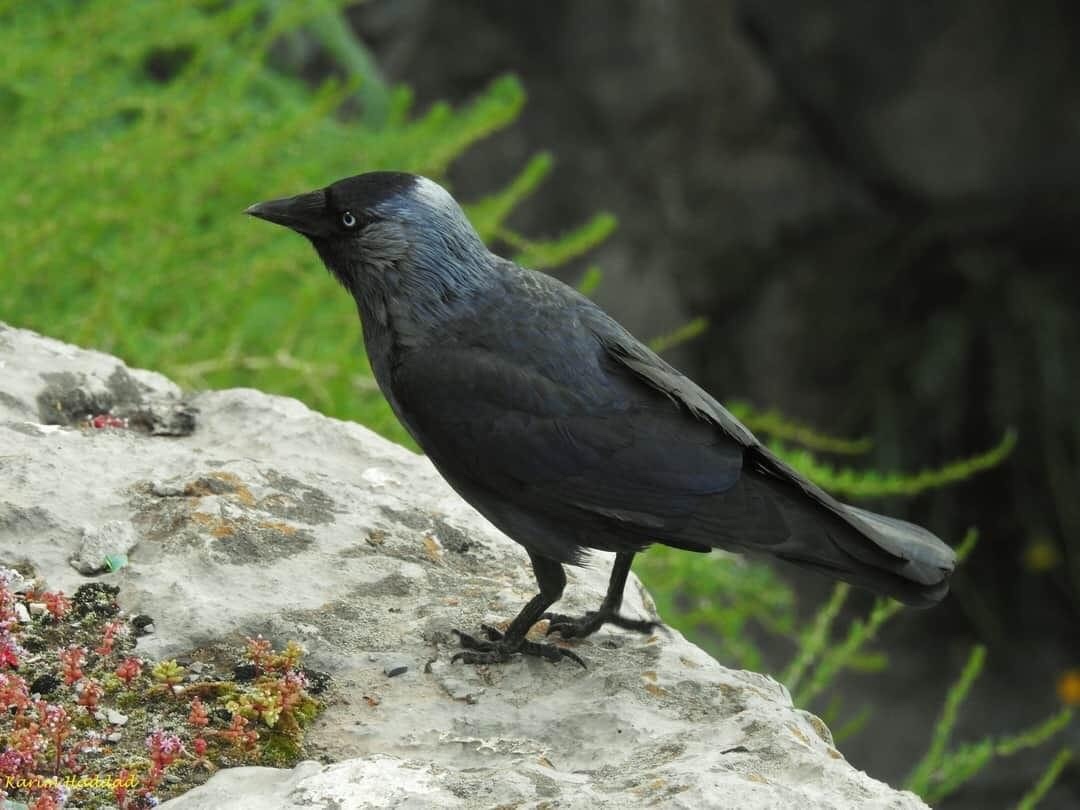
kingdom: Animalia
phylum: Chordata
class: Aves
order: Passeriformes
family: Corvidae
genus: Coloeus
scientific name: Coloeus monedula
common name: Western jackdaw
